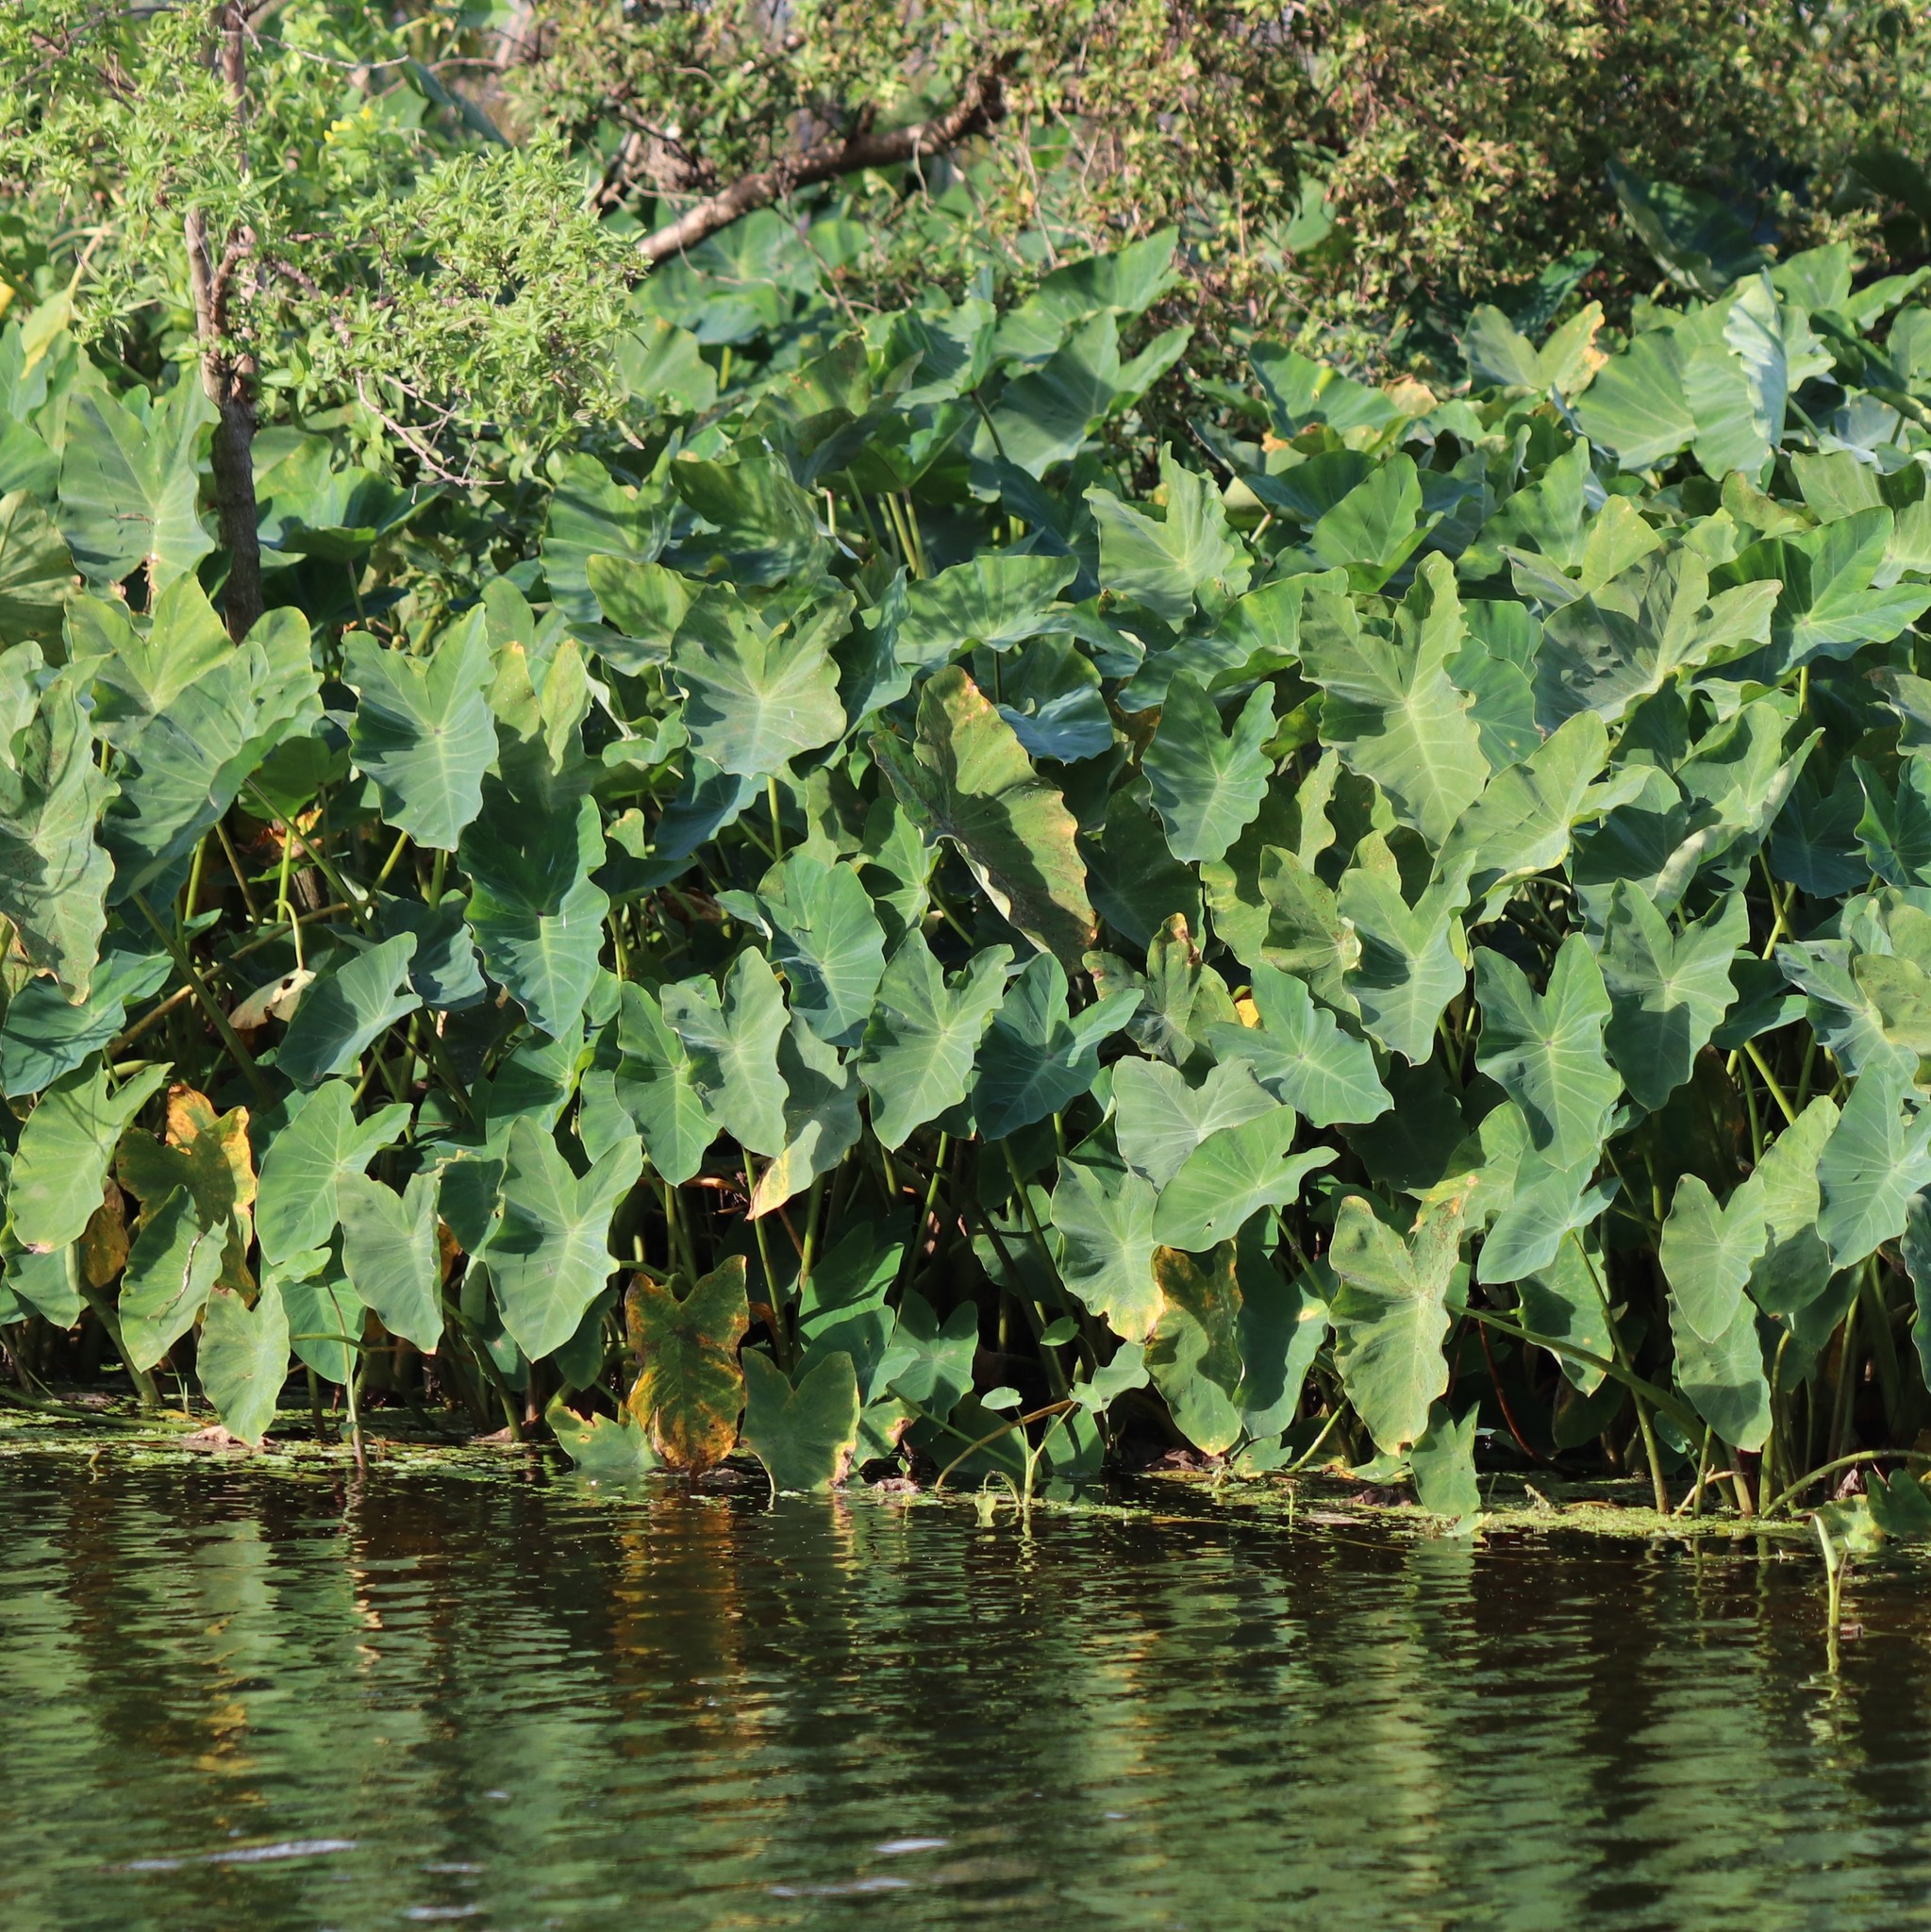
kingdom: Plantae
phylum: Tracheophyta
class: Liliopsida
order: Alismatales
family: Araceae
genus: Colocasia
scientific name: Colocasia esculenta
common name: Taro
